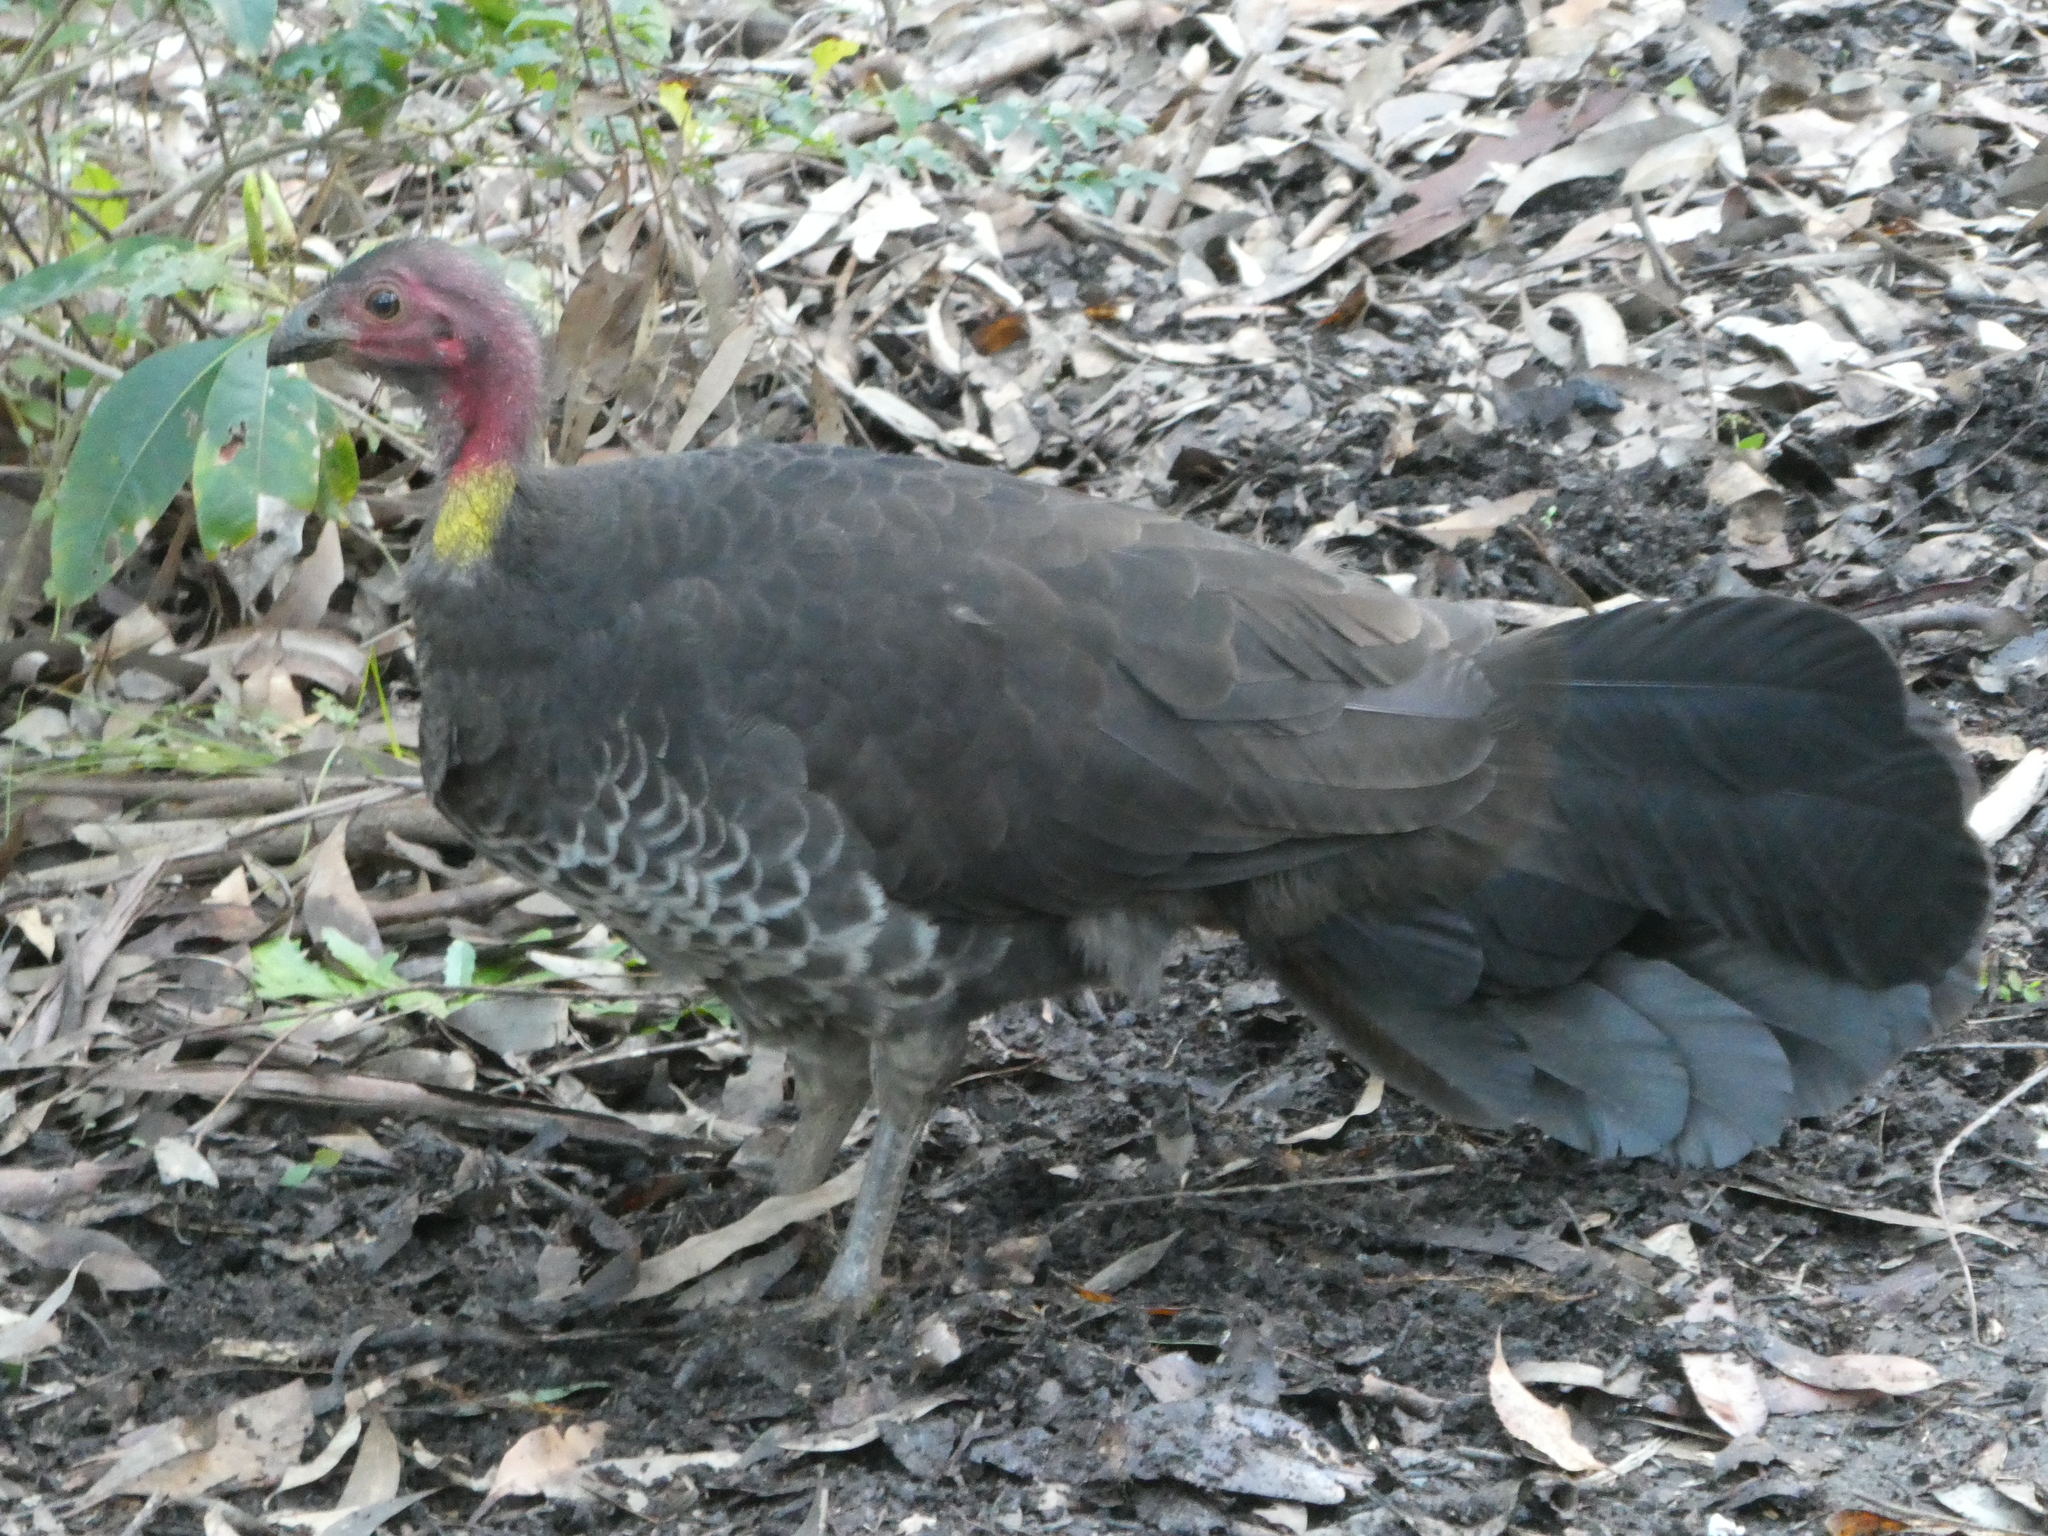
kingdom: Animalia
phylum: Chordata
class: Aves
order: Galliformes
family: Megapodiidae
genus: Alectura
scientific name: Alectura lathami
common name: Australian brushturkey
